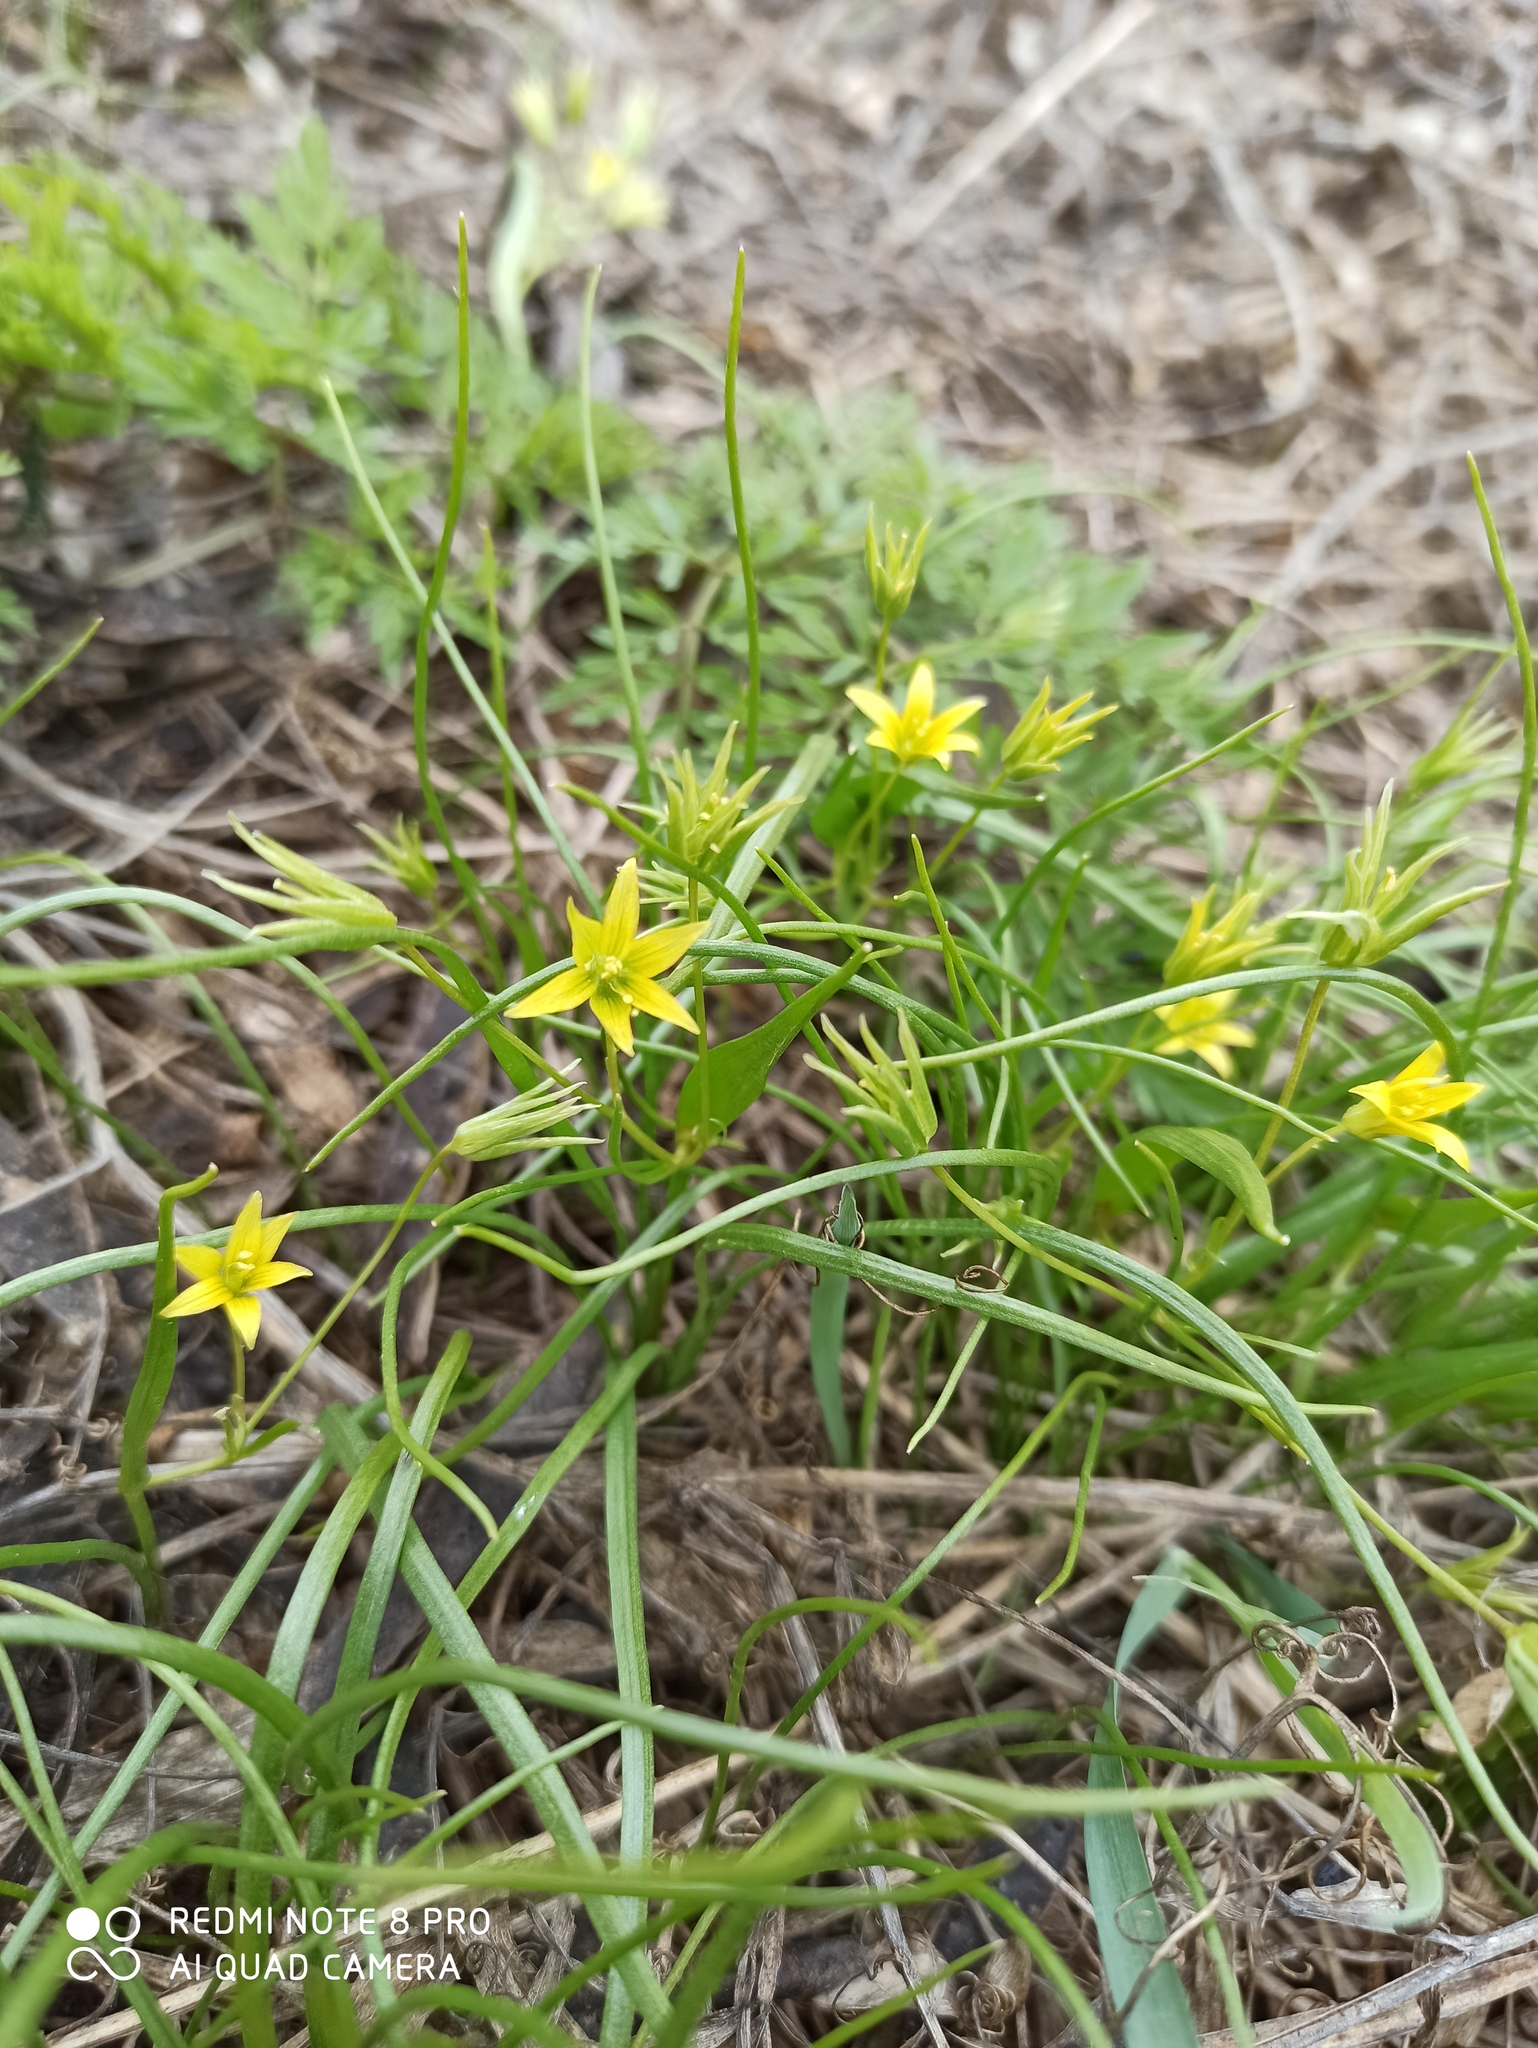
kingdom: Plantae
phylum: Tracheophyta
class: Liliopsida
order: Liliales
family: Liliaceae
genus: Gagea
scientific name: Gagea minima
